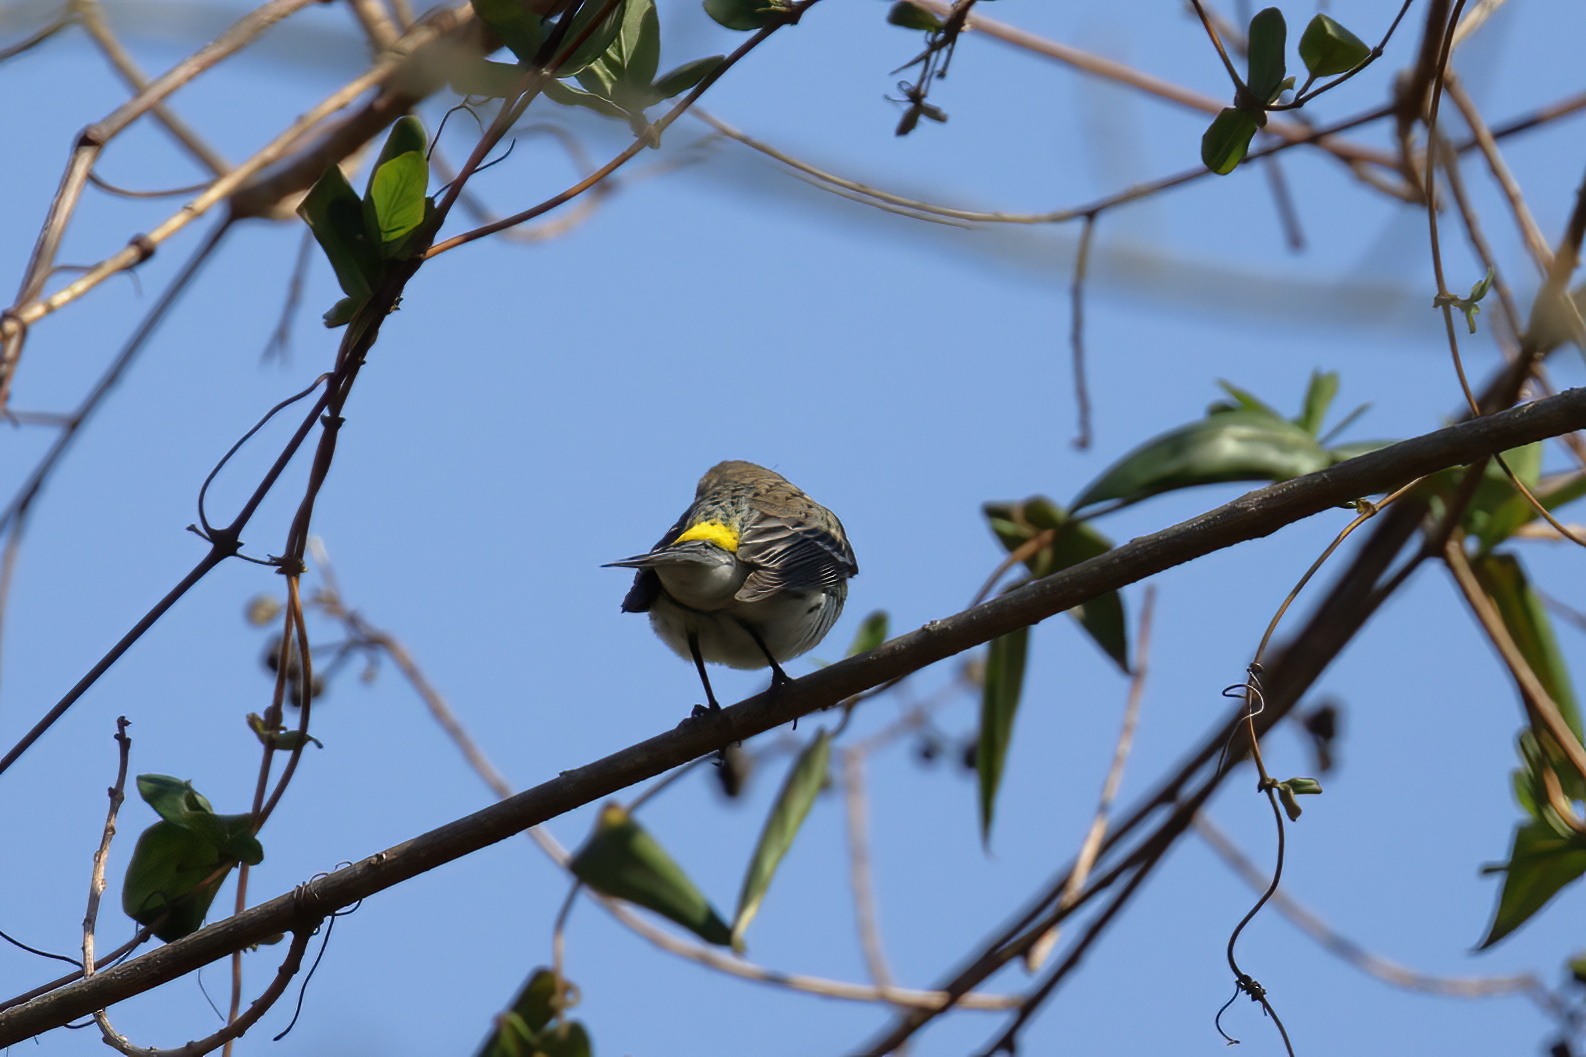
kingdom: Animalia
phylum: Chordata
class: Aves
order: Passeriformes
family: Parulidae
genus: Setophaga
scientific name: Setophaga coronata
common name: Myrtle warbler
